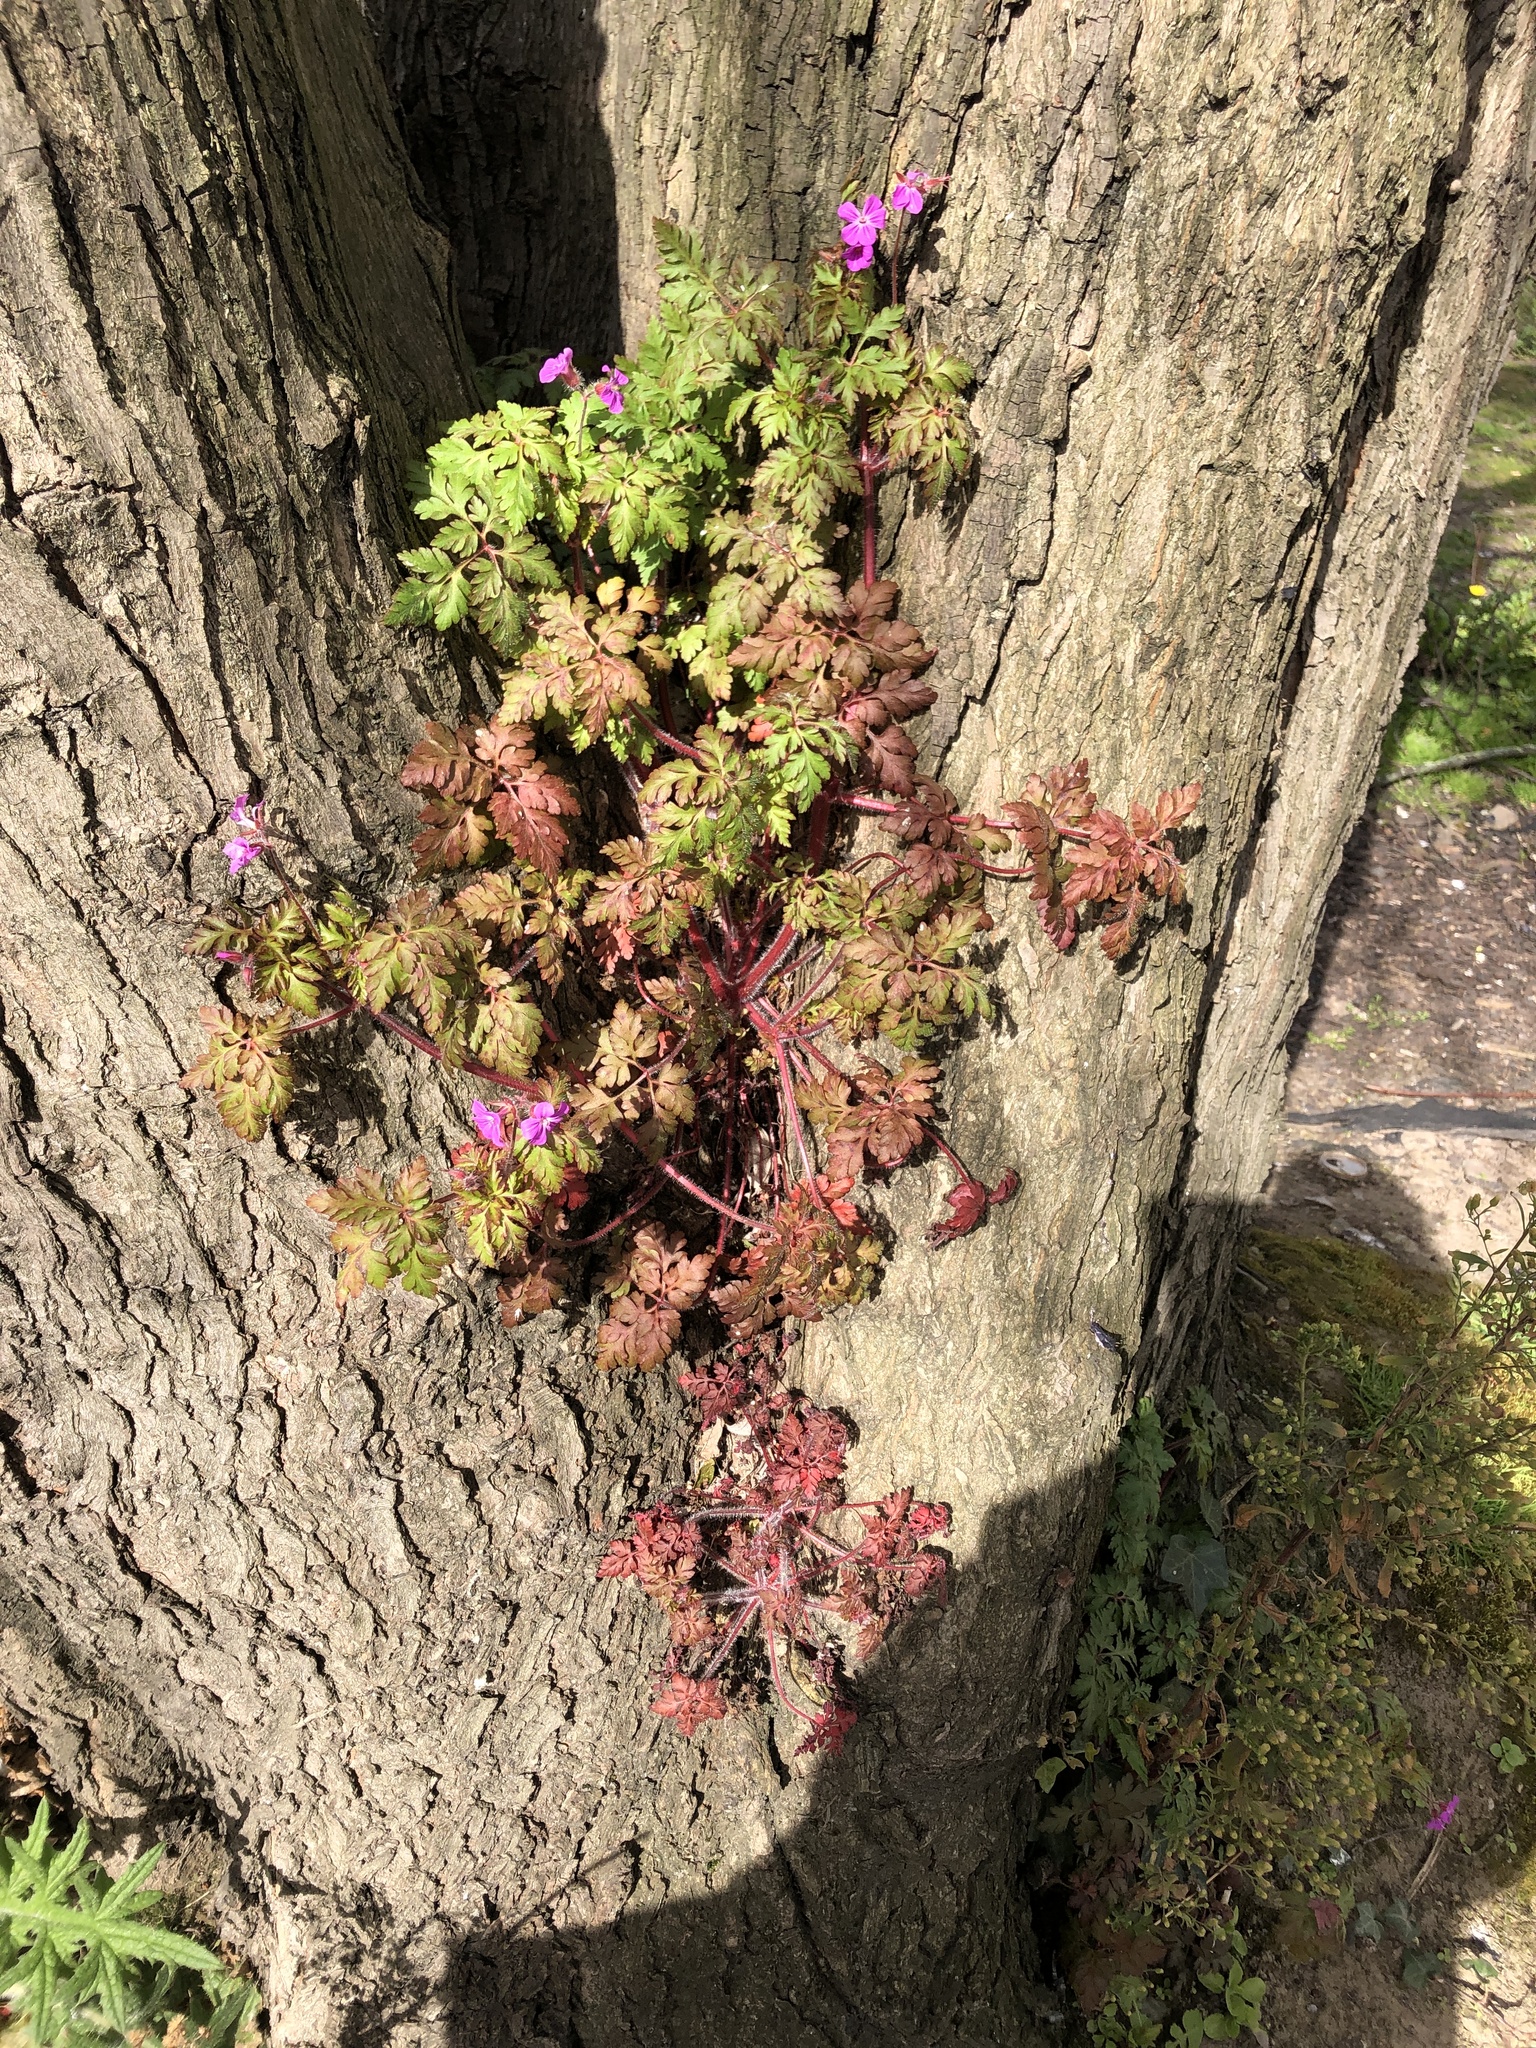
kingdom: Plantae
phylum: Tracheophyta
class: Magnoliopsida
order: Geraniales
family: Geraniaceae
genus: Geranium
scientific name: Geranium robertianum
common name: Herb-robert
